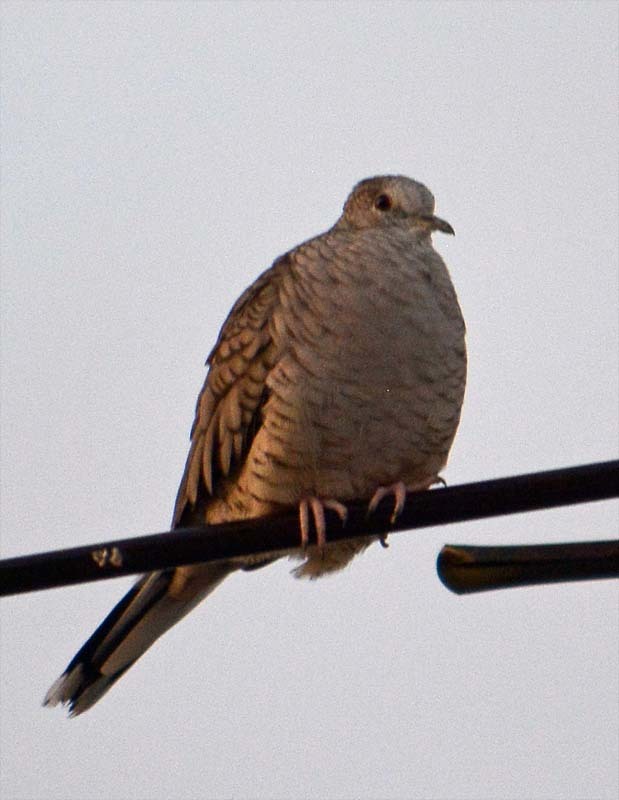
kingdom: Animalia
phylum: Chordata
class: Aves
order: Columbiformes
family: Columbidae
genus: Columbina
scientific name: Columbina inca
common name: Inca dove
